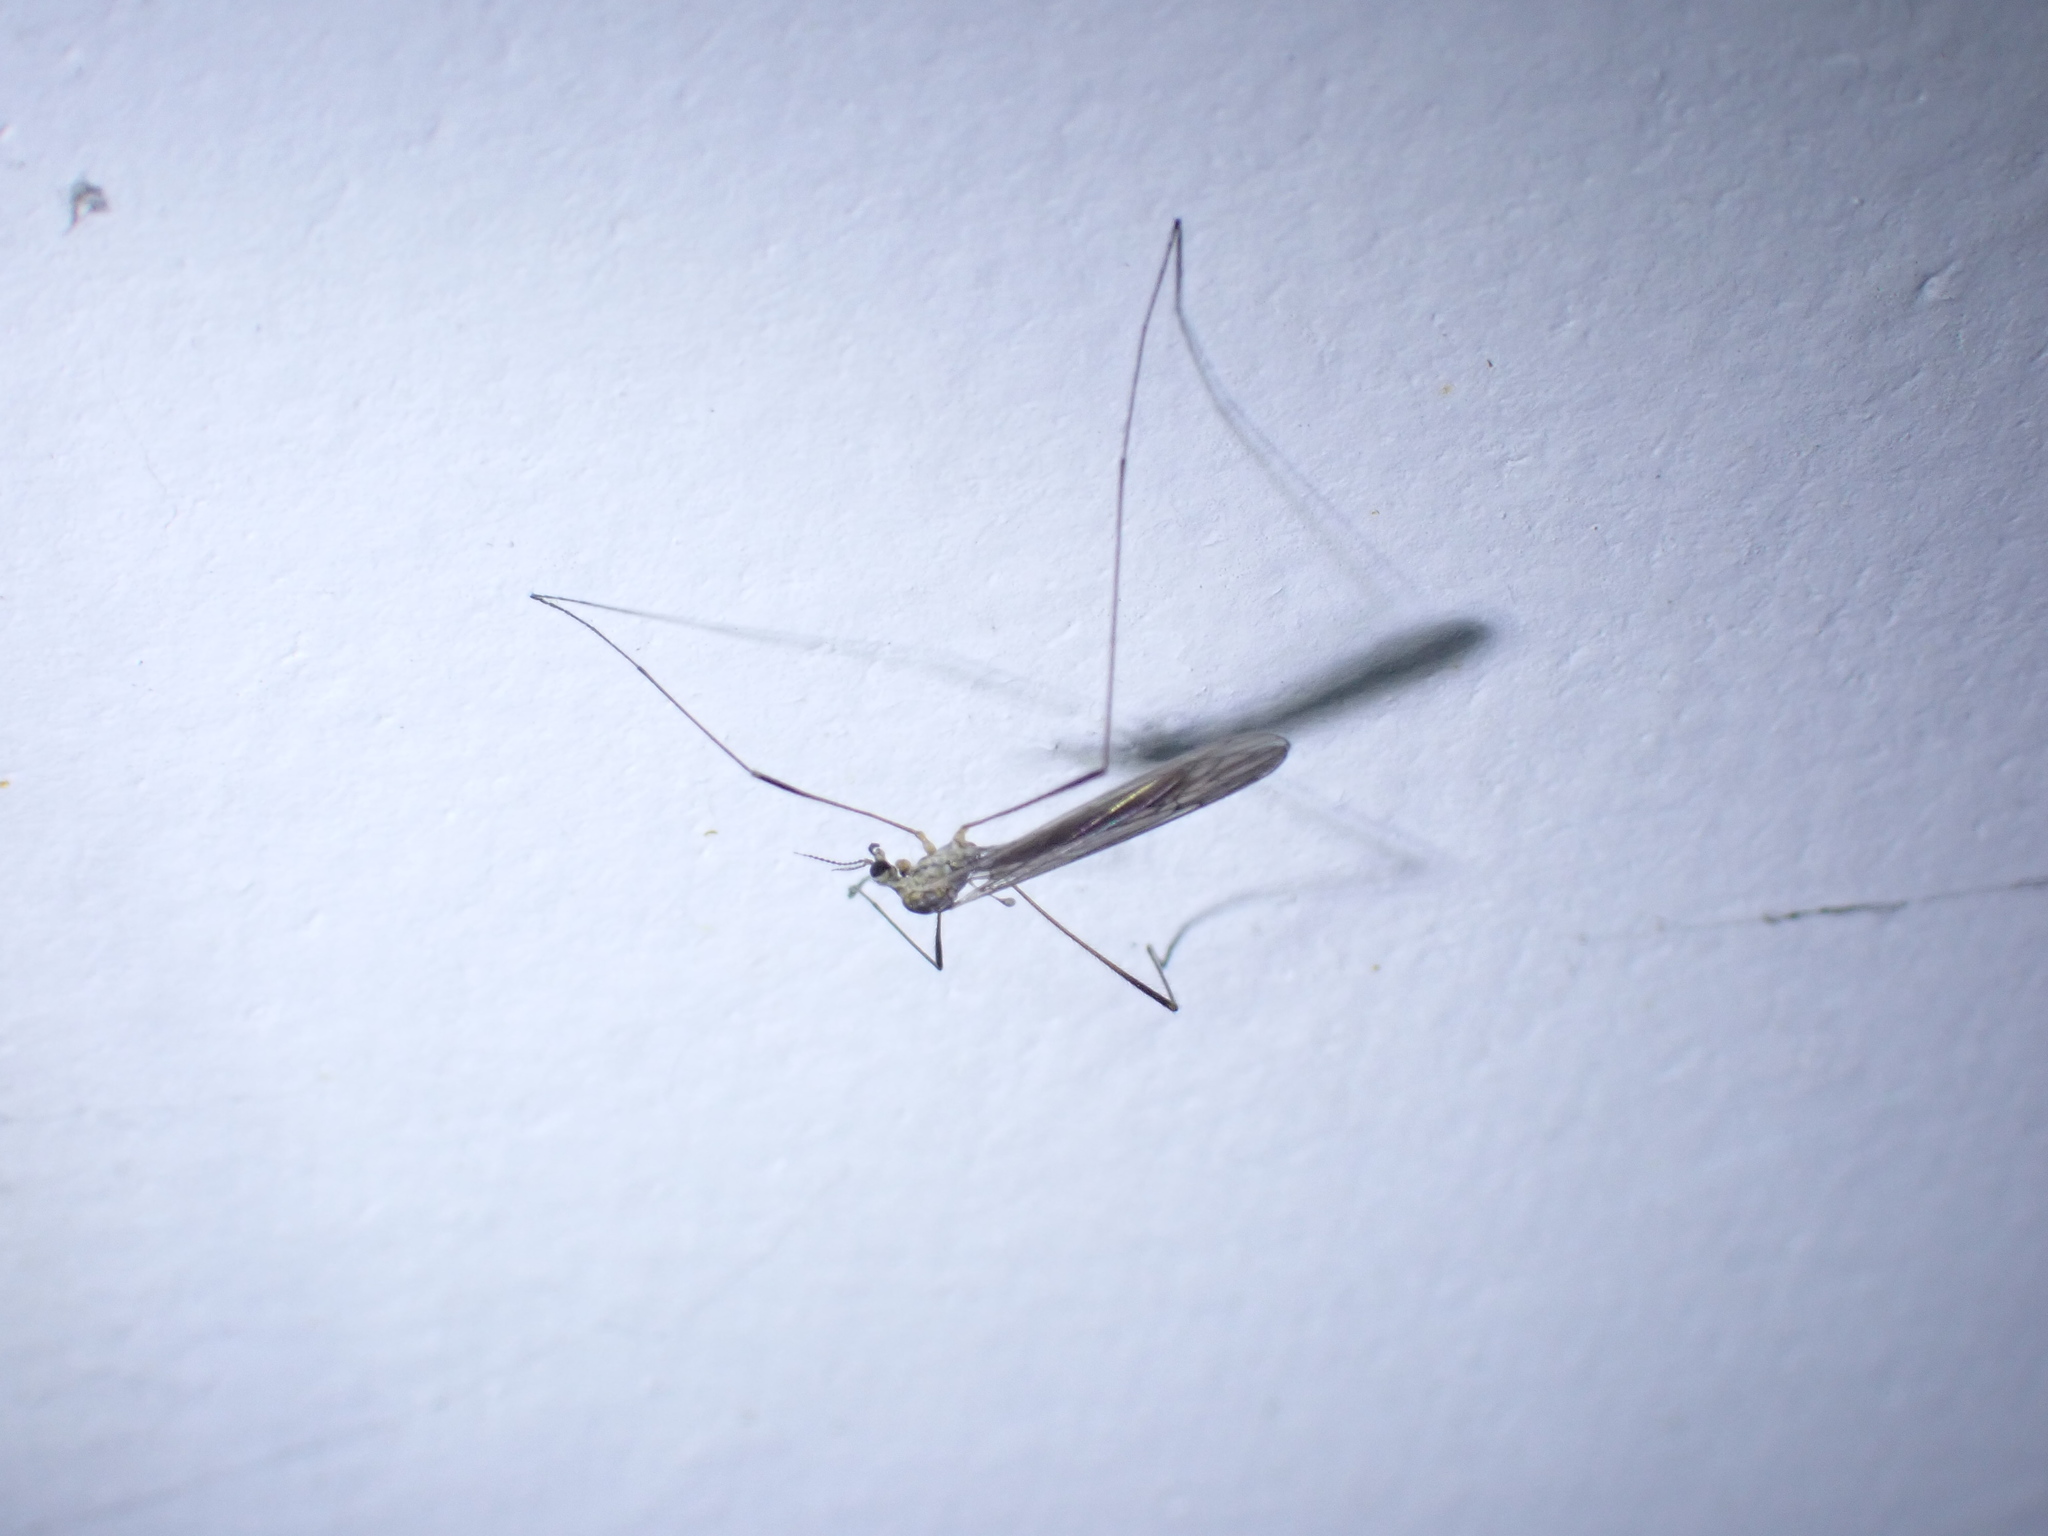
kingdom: Animalia
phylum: Arthropoda
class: Insecta
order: Diptera
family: Limoniidae
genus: Symplecta
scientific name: Symplecta pilipes
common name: Crane fly
